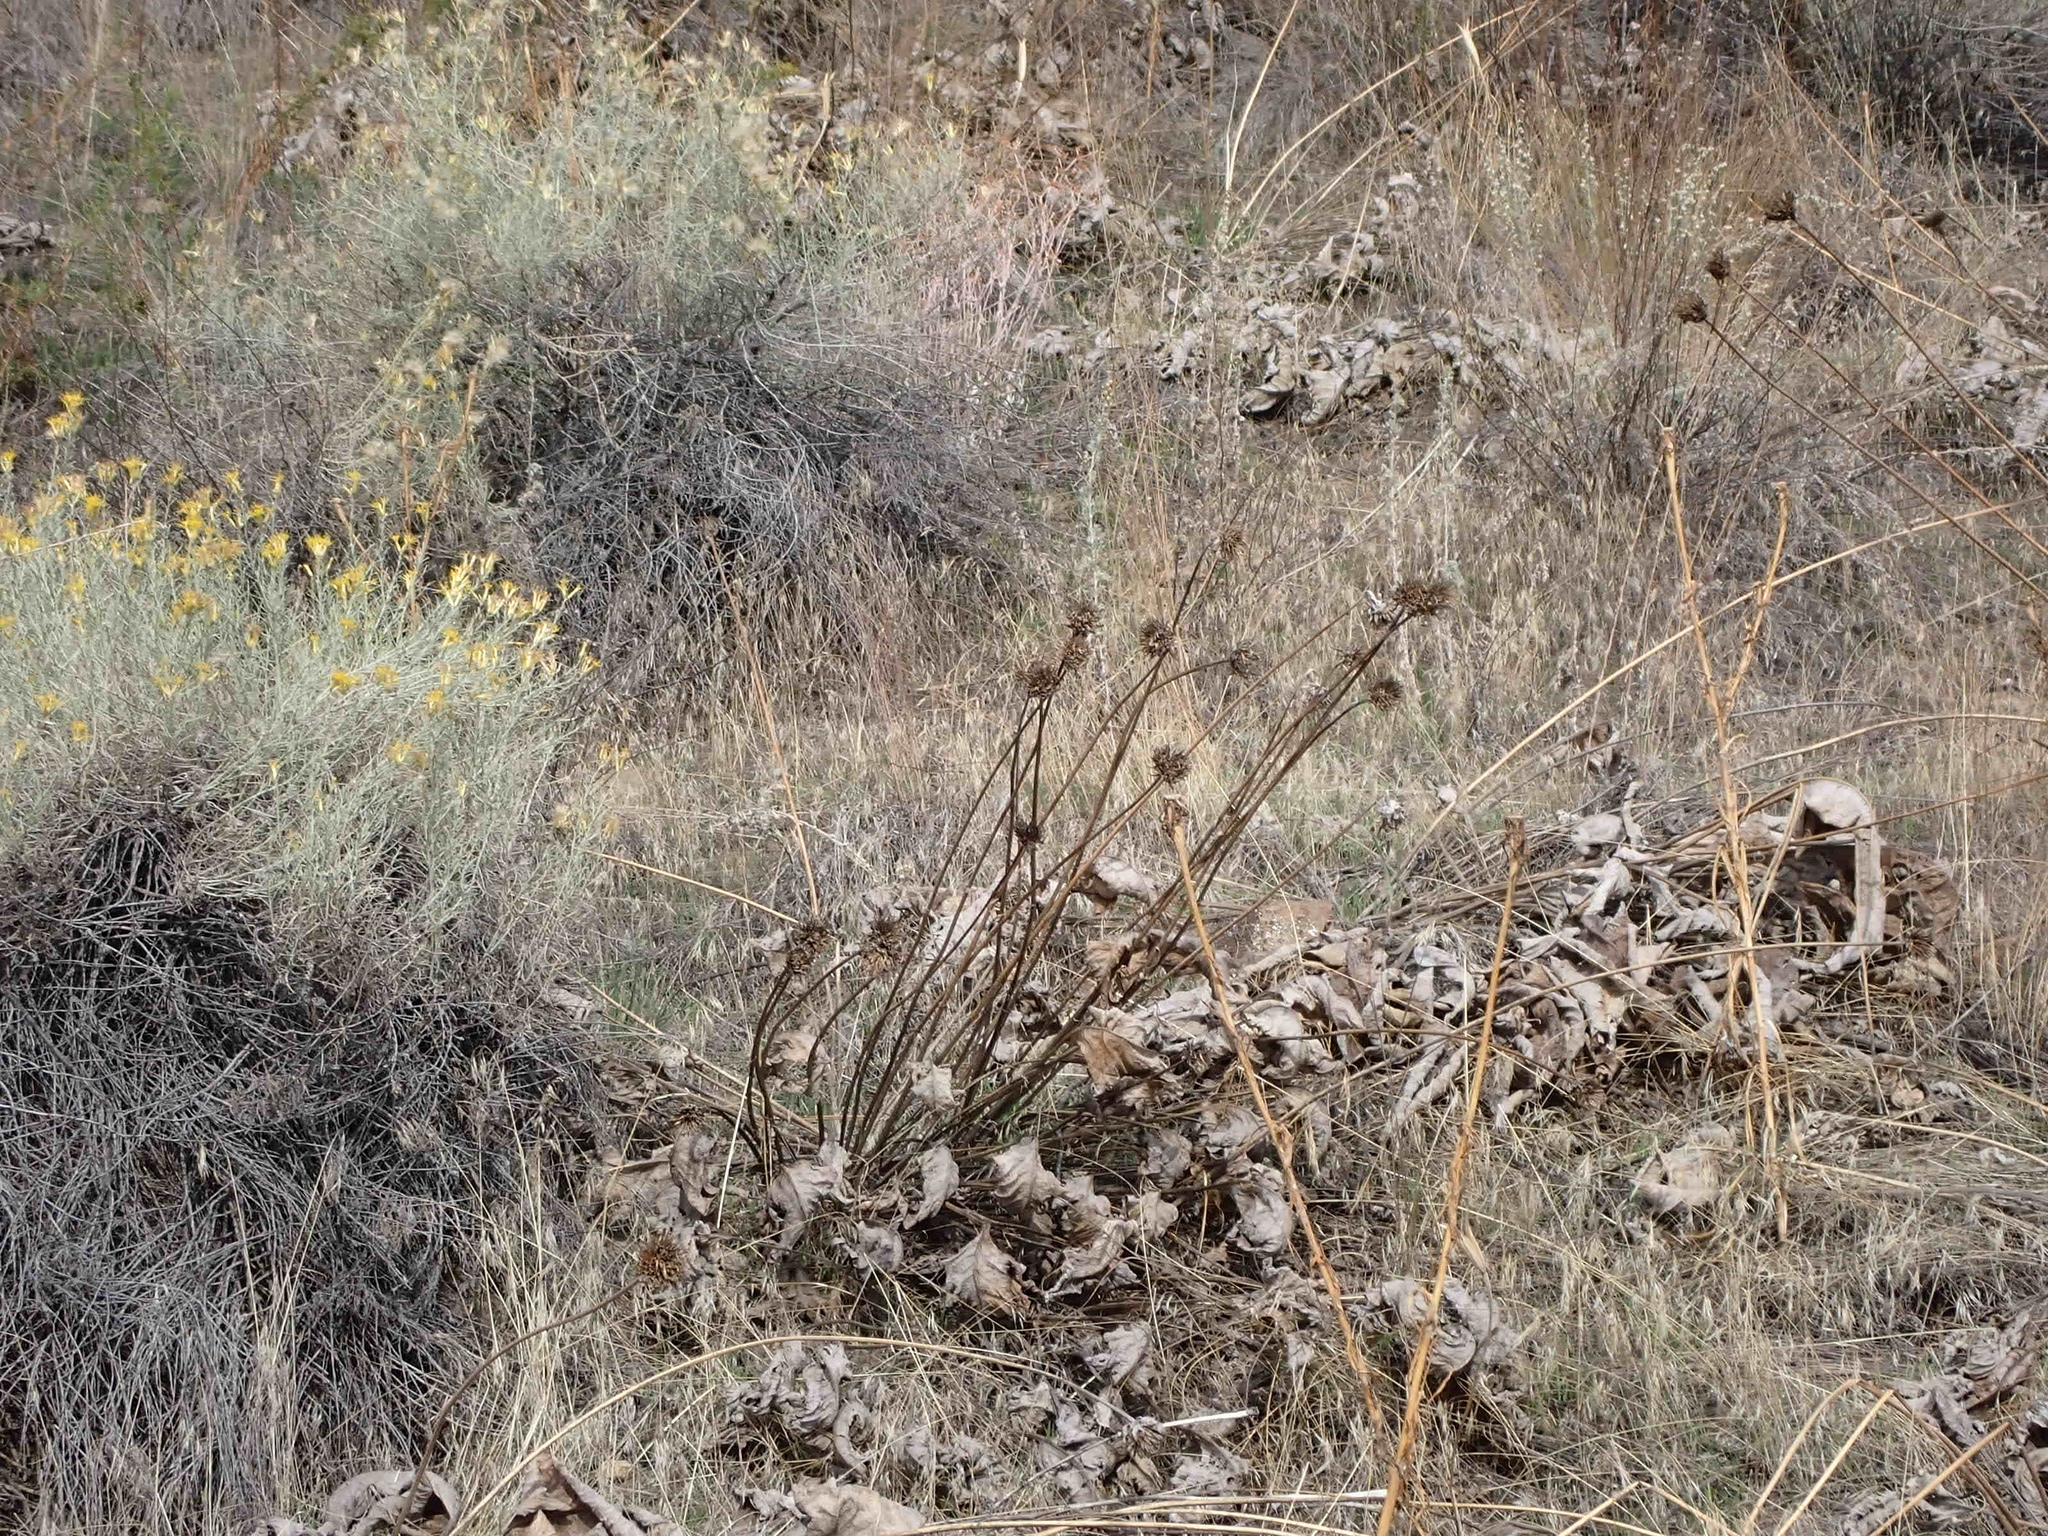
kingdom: Plantae
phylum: Tracheophyta
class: Magnoliopsida
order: Asterales
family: Asteraceae
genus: Wyethia
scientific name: Wyethia sagittata
